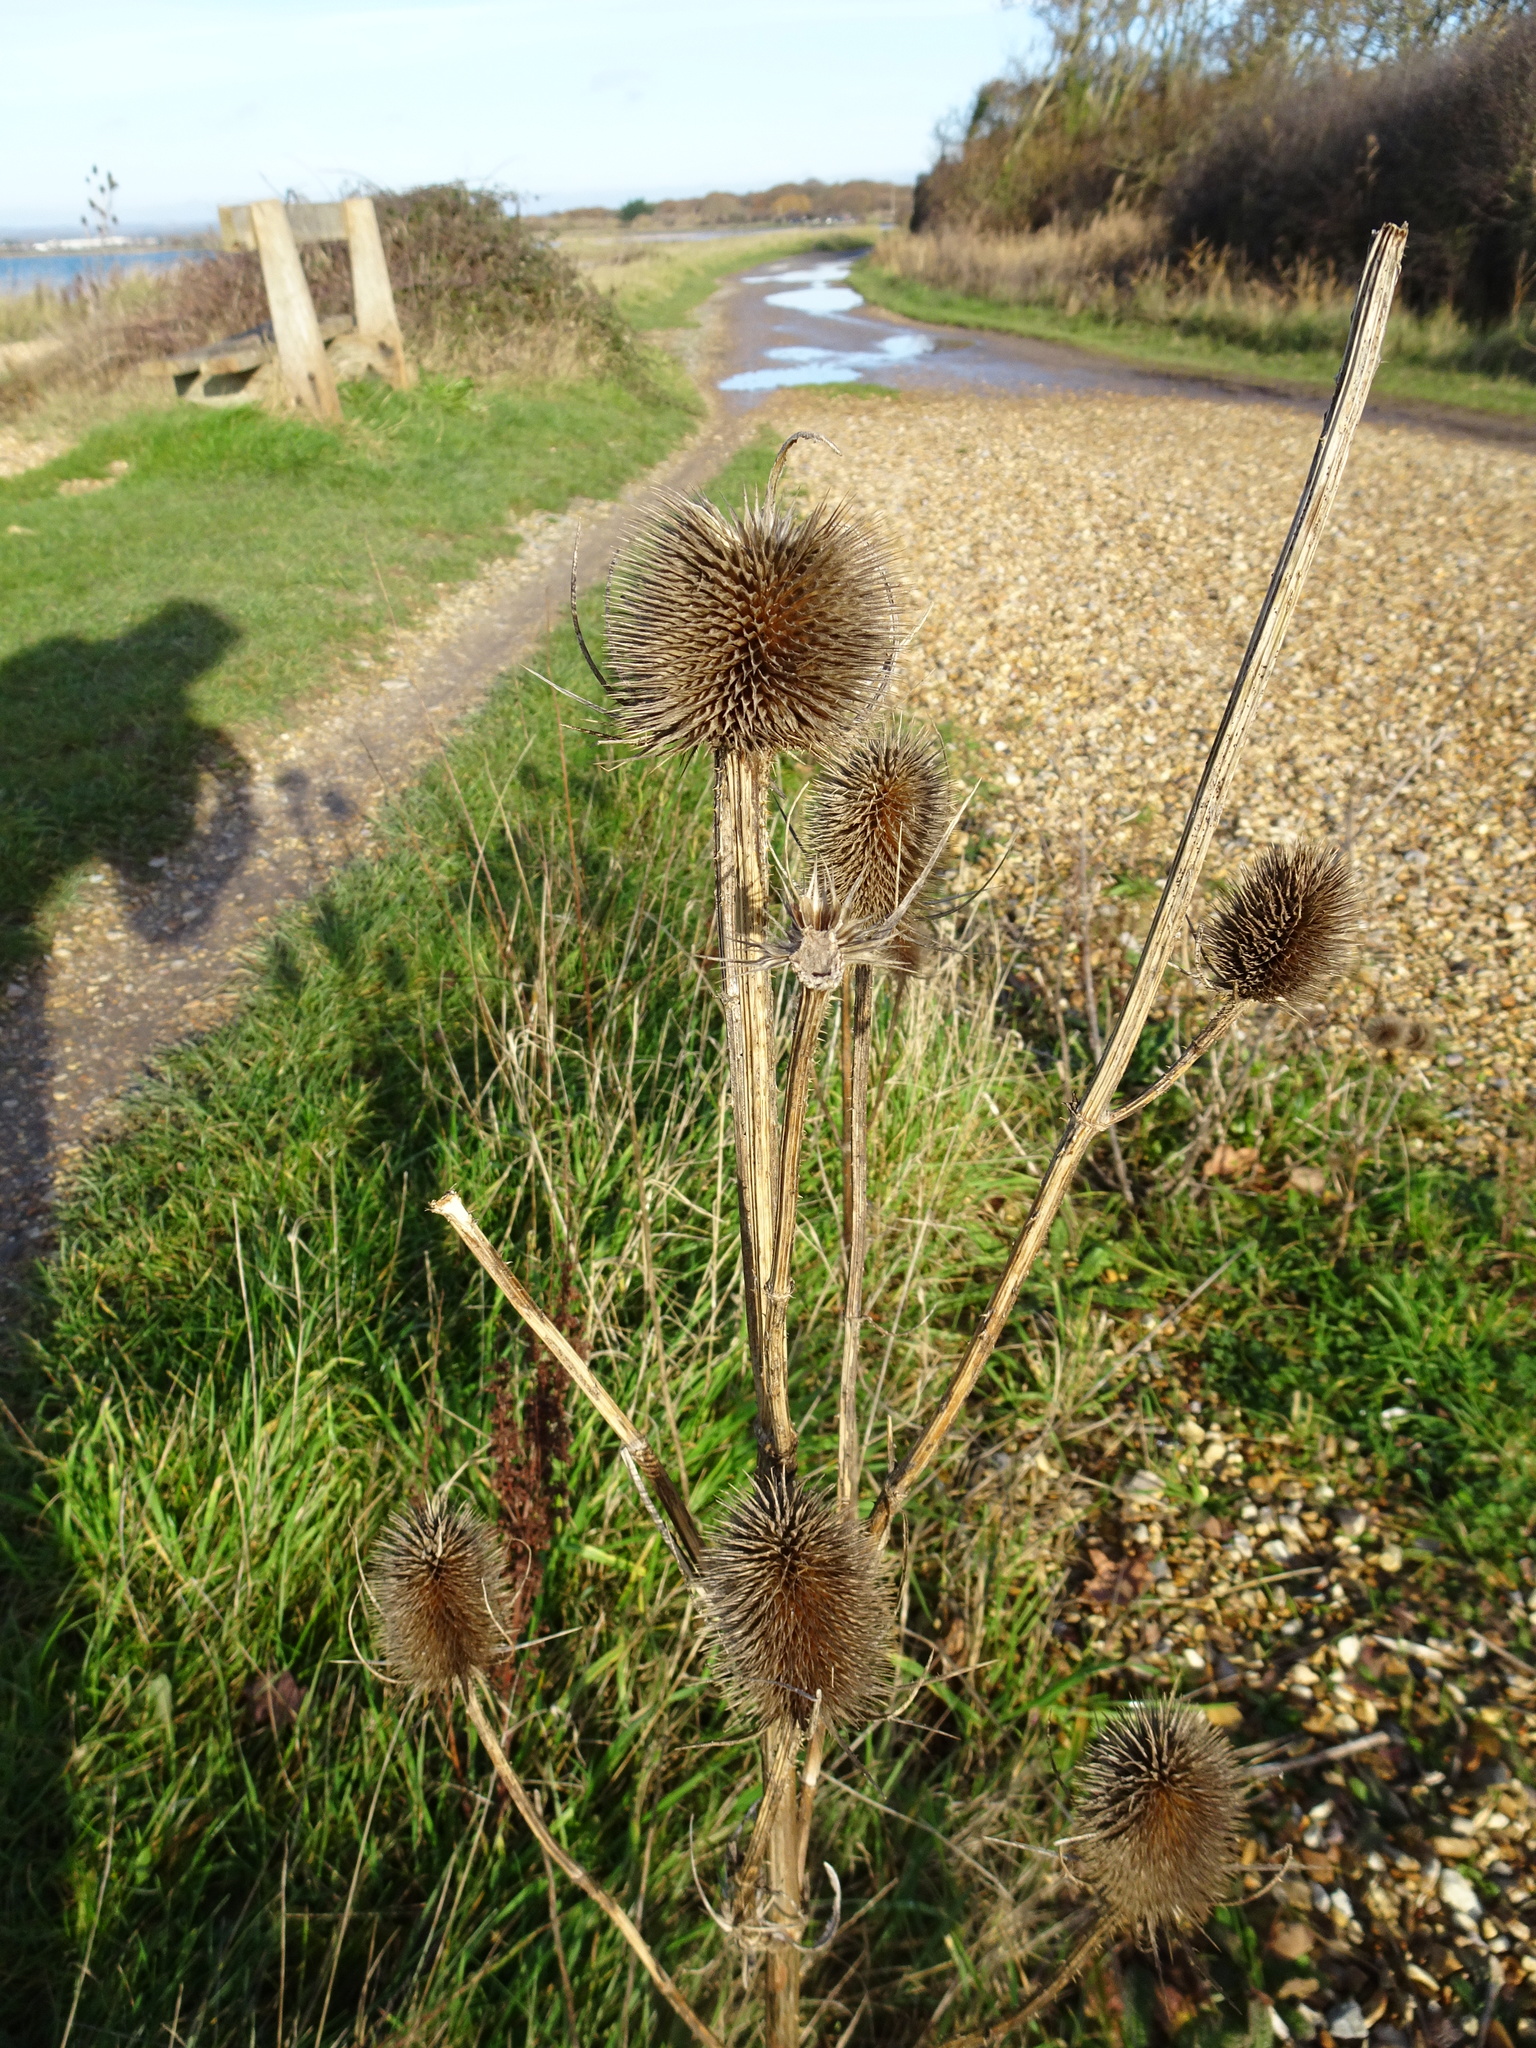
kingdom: Plantae
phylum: Tracheophyta
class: Magnoliopsida
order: Dipsacales
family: Caprifoliaceae
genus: Dipsacus
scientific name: Dipsacus fullonum
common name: Teasel
